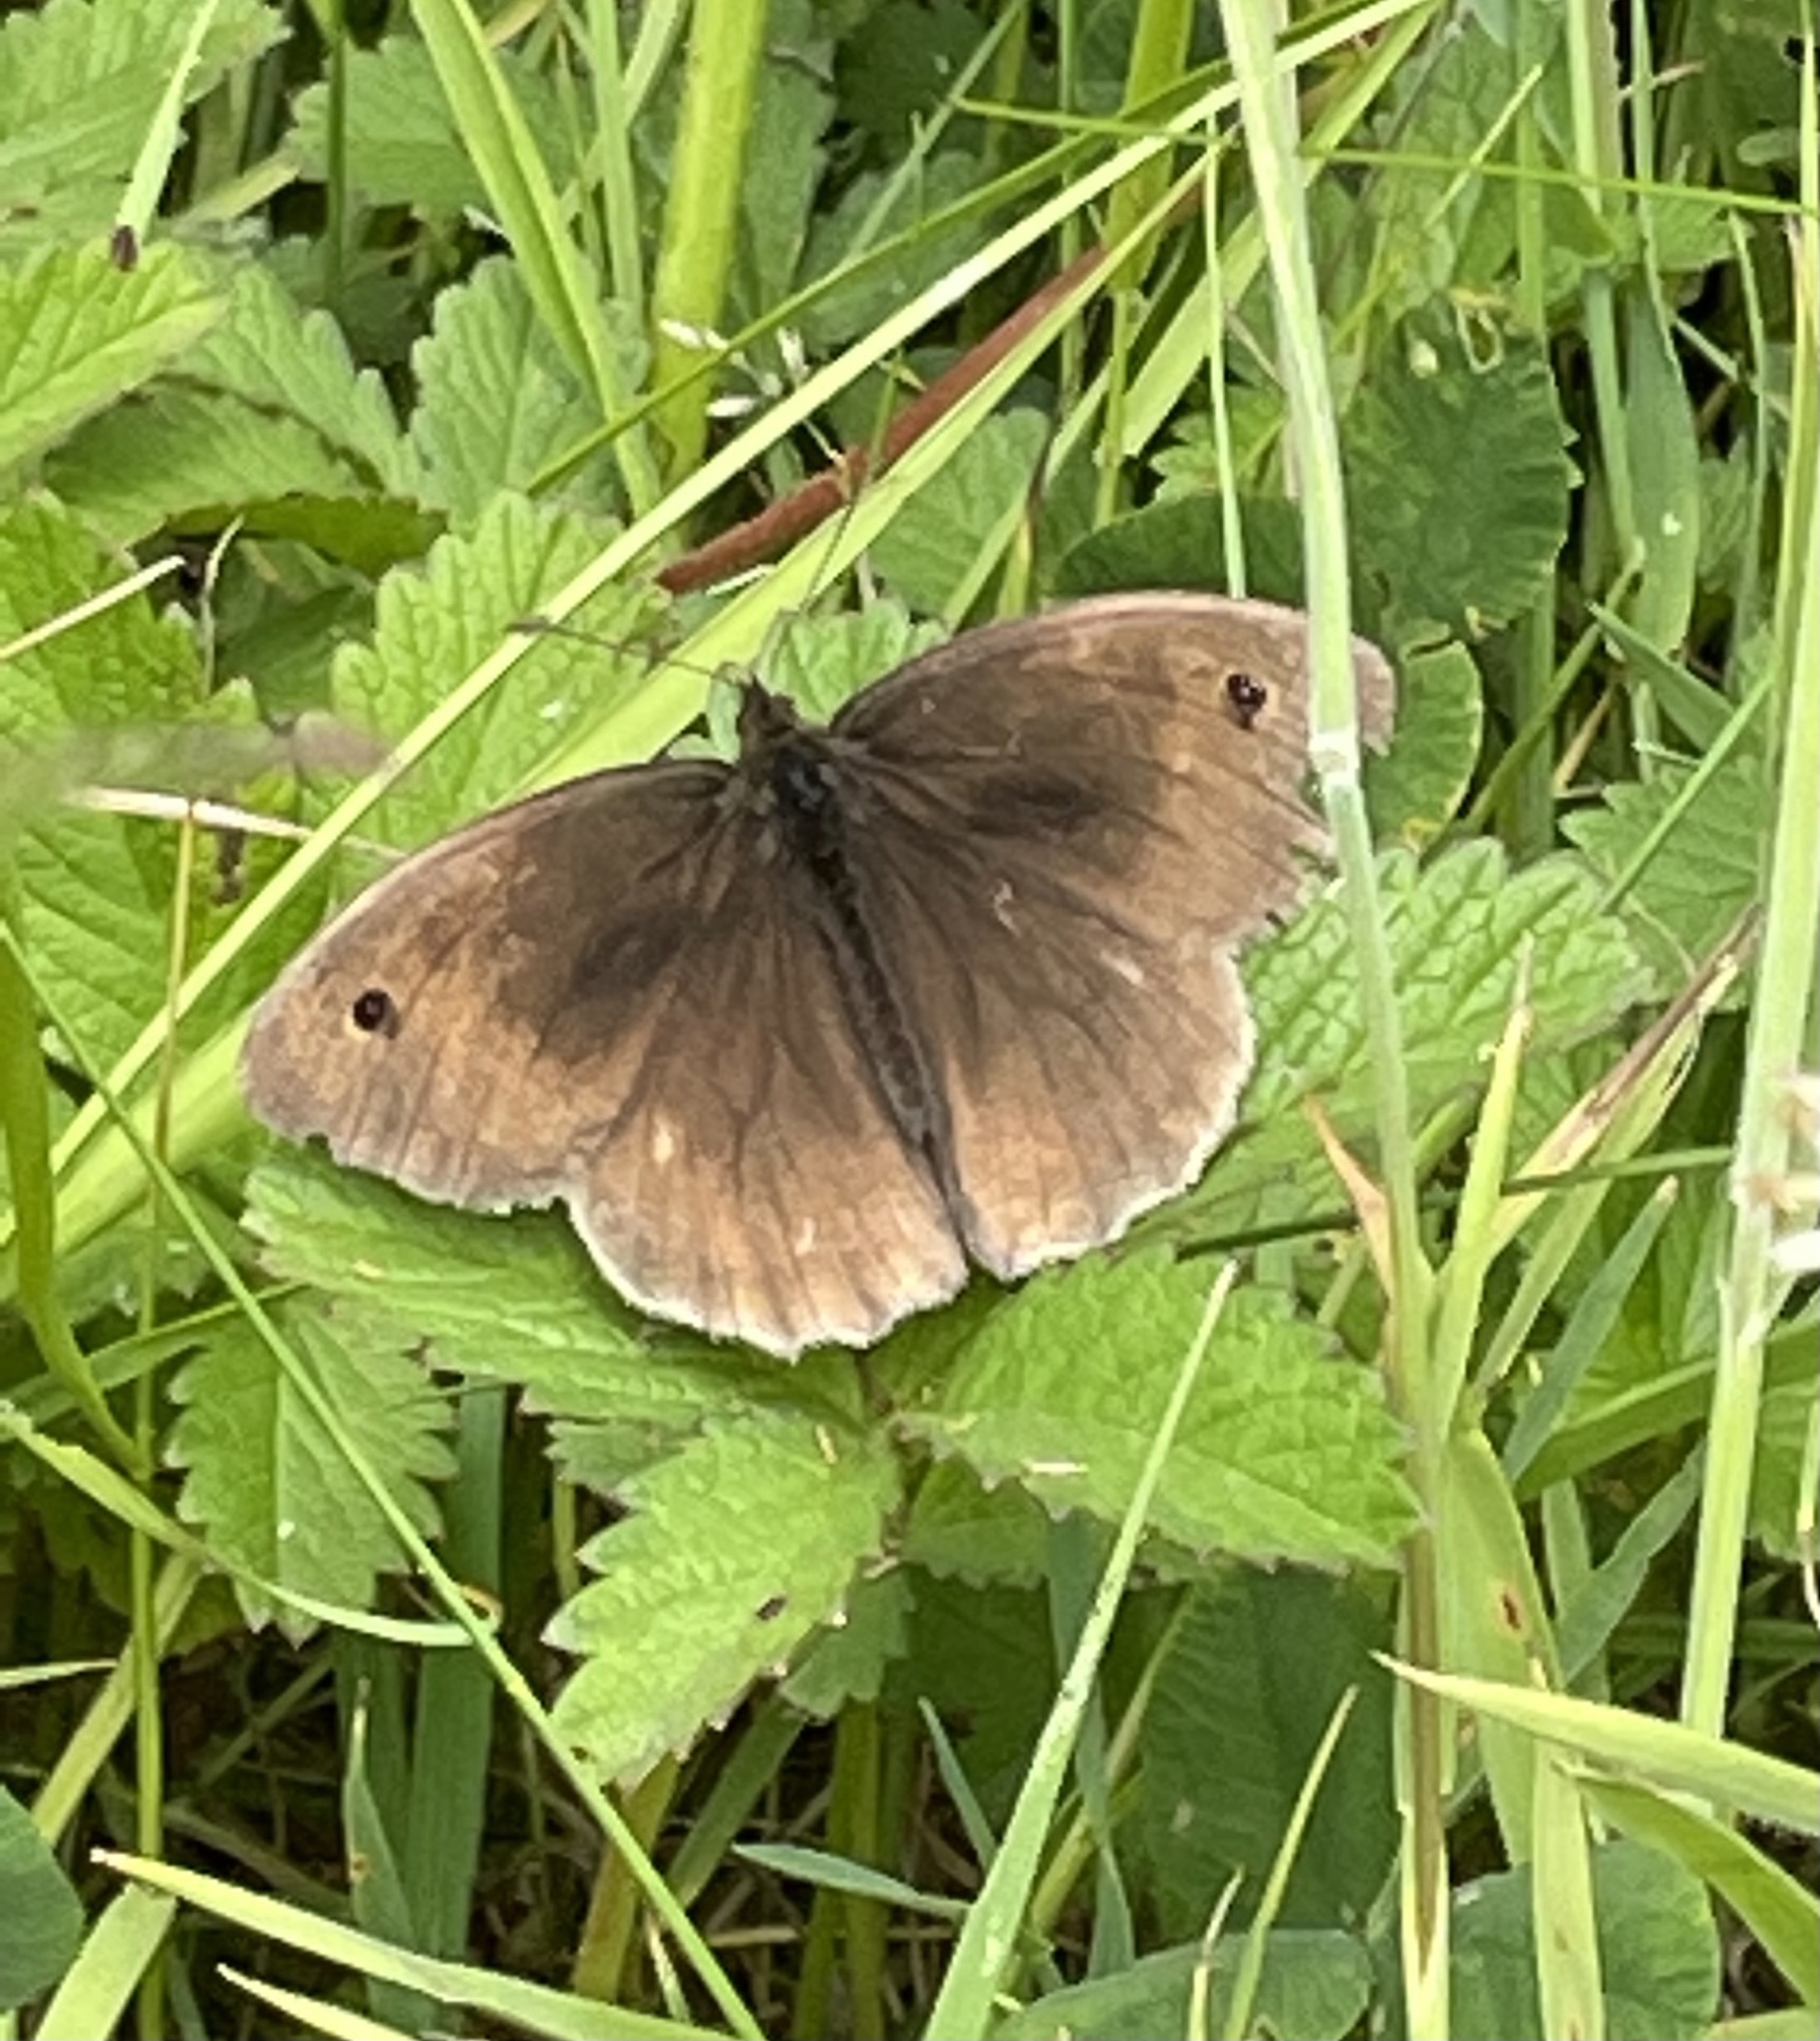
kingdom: Animalia
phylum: Arthropoda
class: Insecta
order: Lepidoptera
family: Nymphalidae
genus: Maniola
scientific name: Maniola jurtina
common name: Meadow brown
